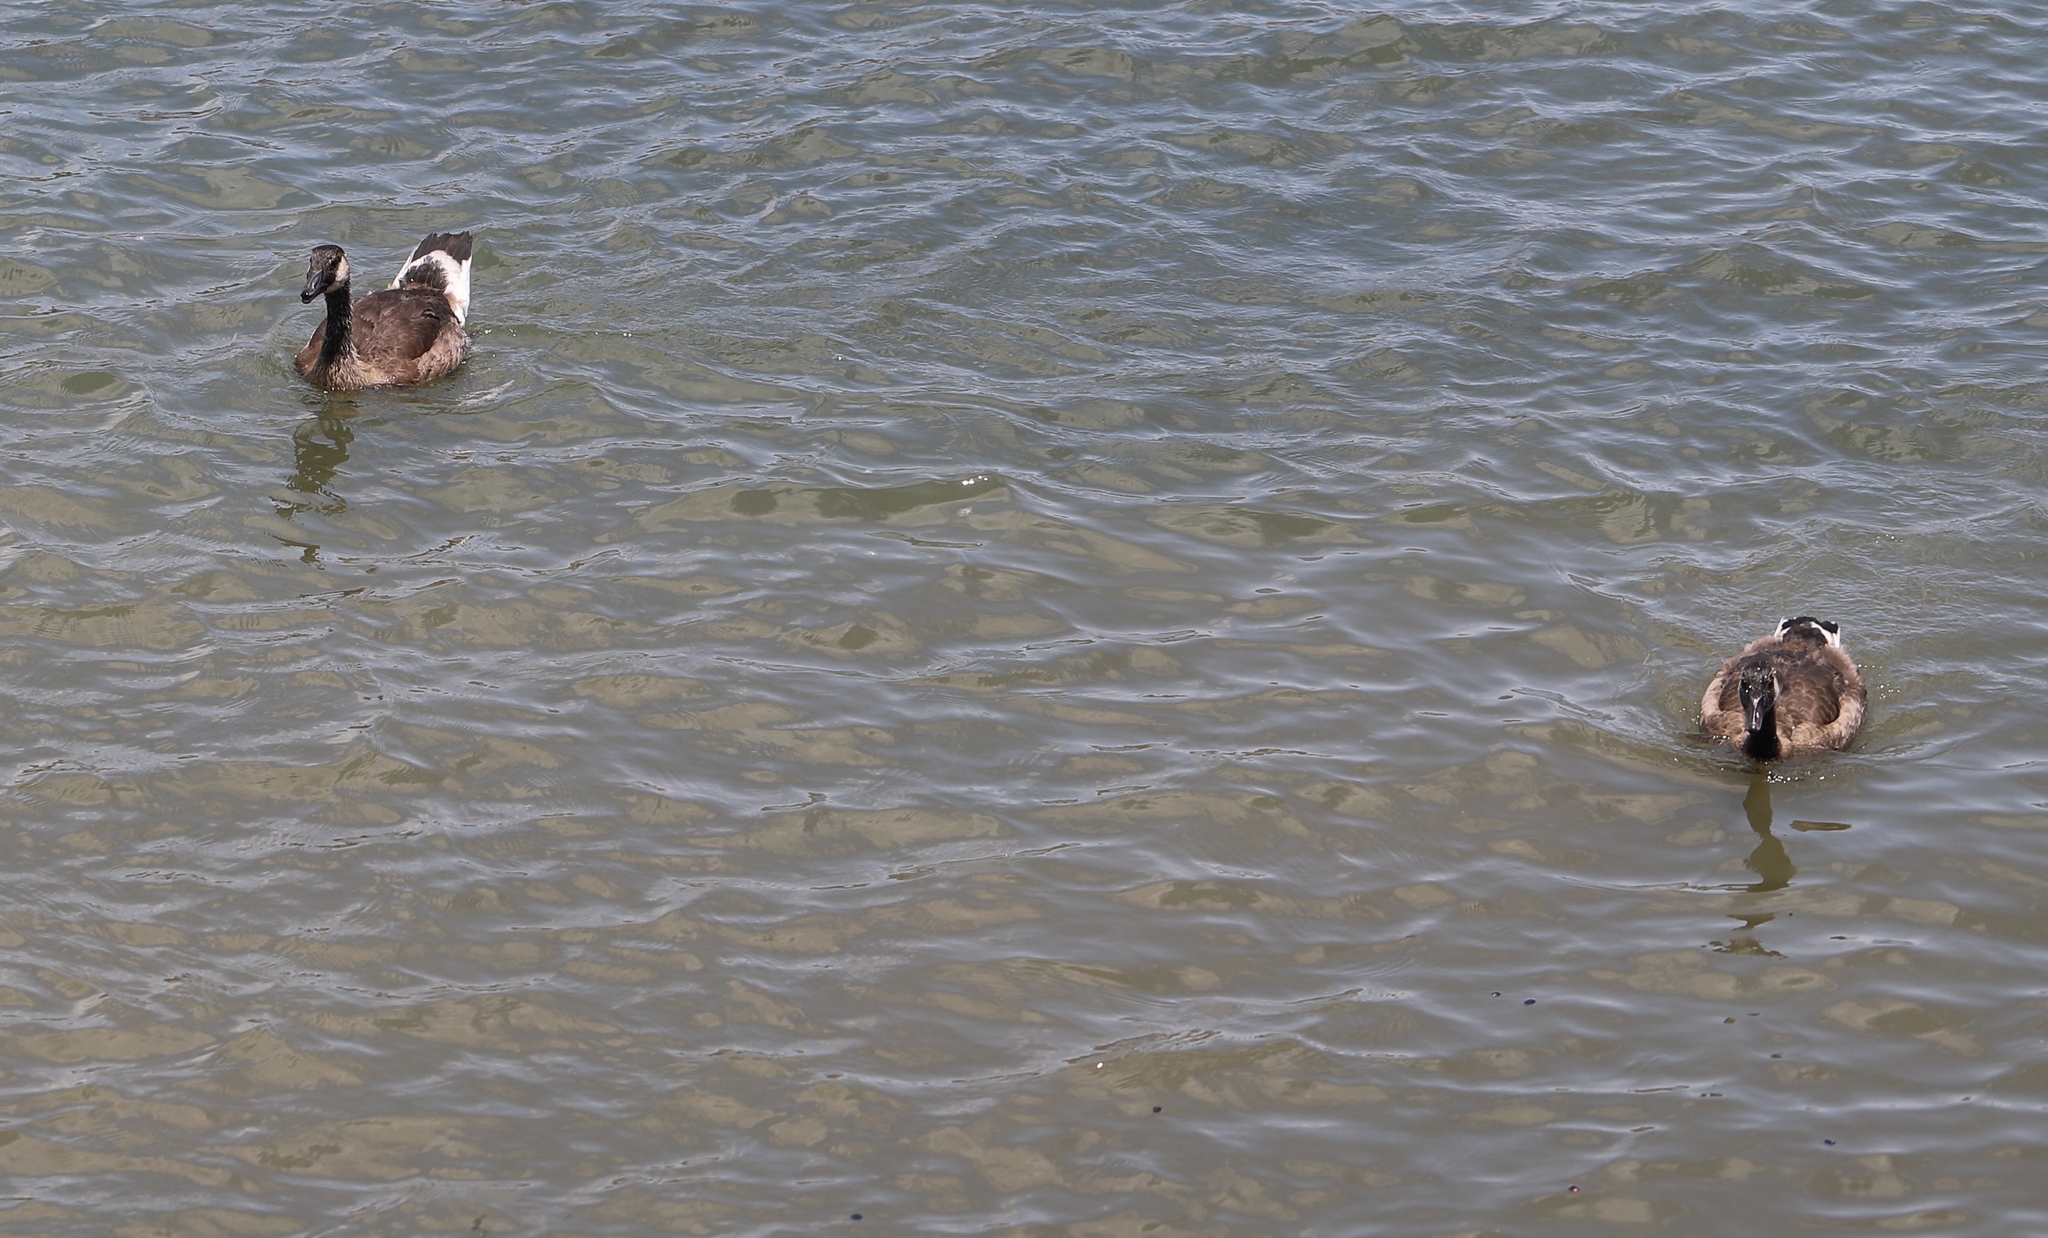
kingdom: Animalia
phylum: Chordata
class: Aves
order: Anseriformes
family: Anatidae
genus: Branta
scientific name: Branta canadensis
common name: Canada goose
